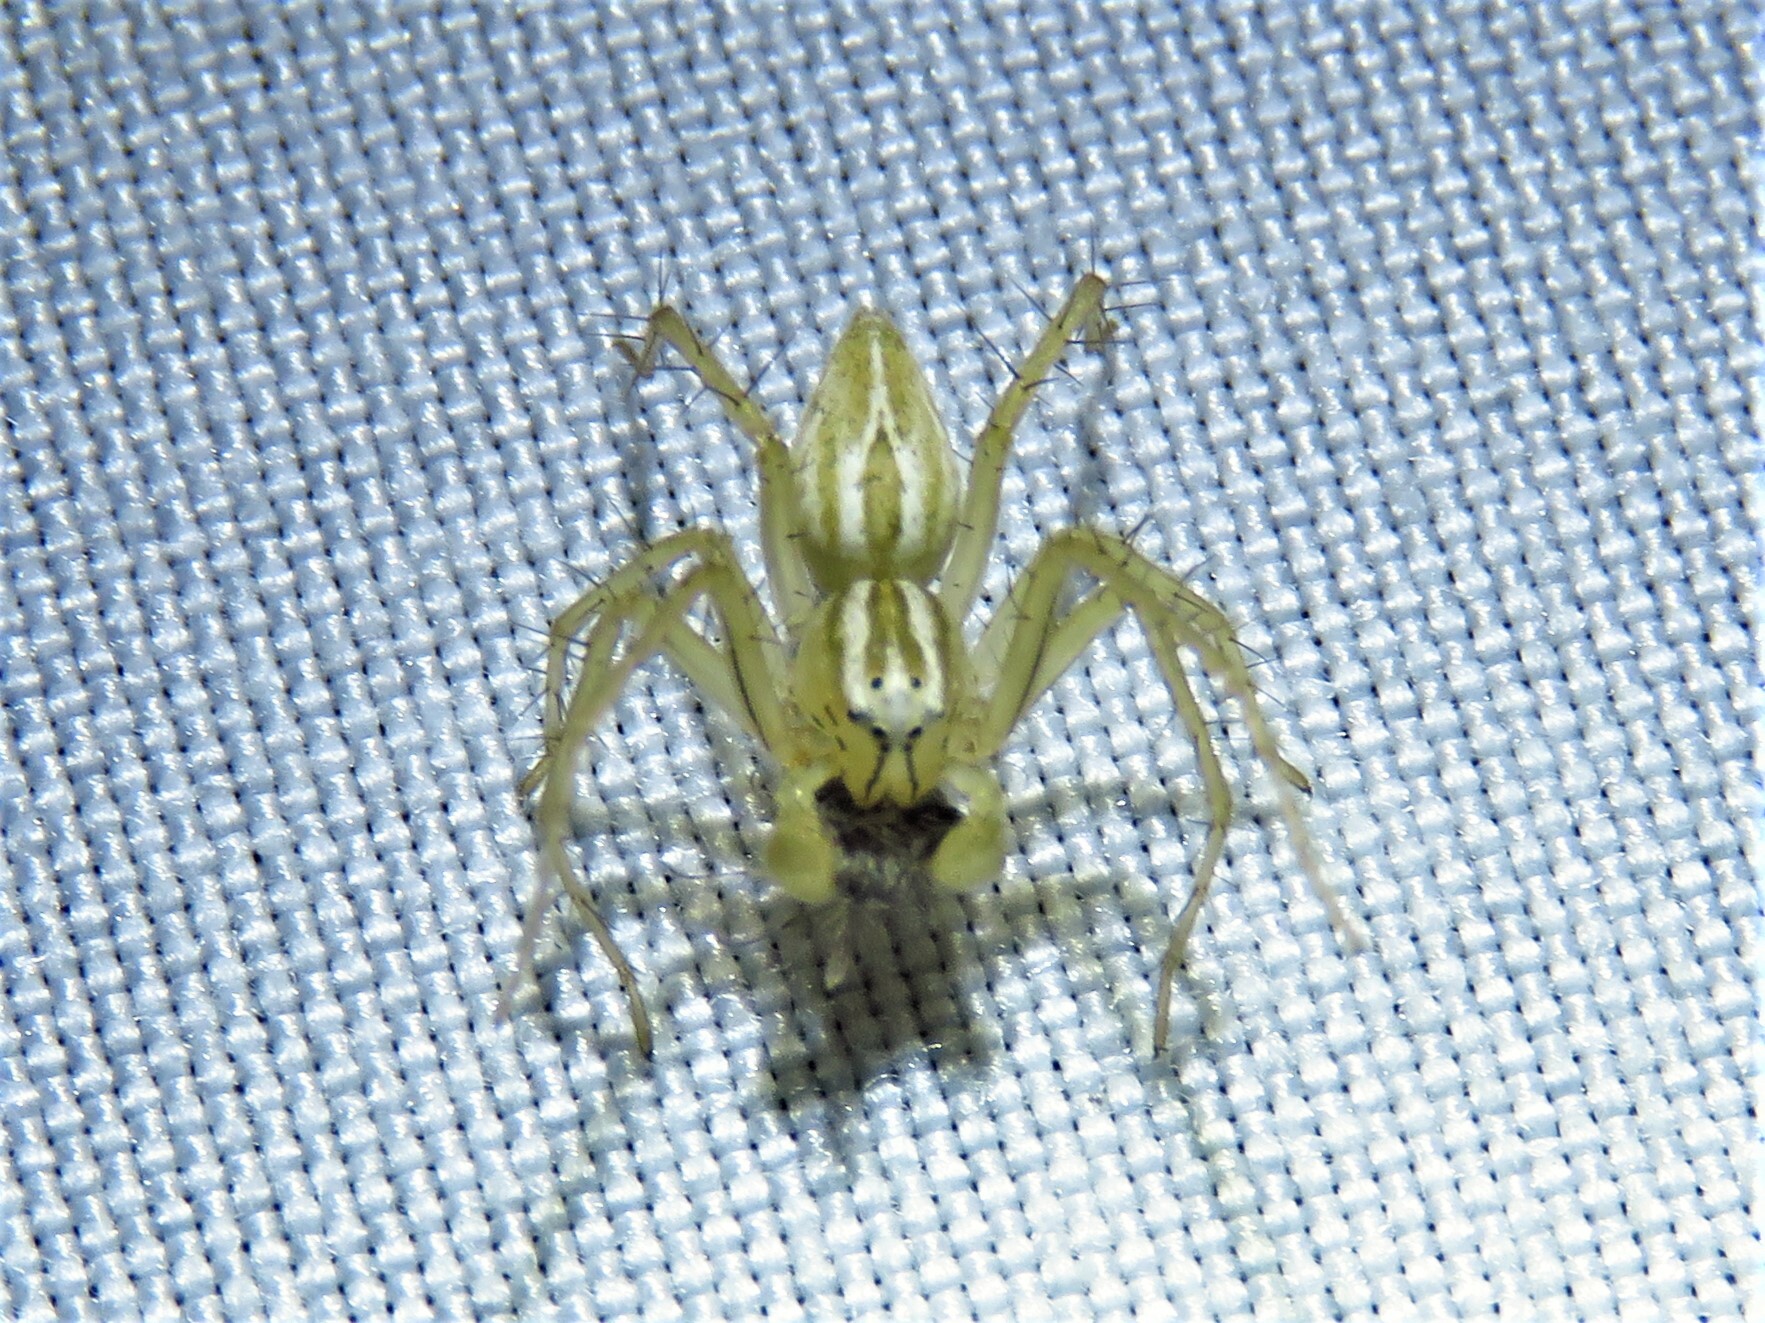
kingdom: Animalia
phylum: Arthropoda
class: Arachnida
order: Araneae
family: Oxyopidae
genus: Oxyopes
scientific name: Oxyopes salticus
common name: Lynx spiders
